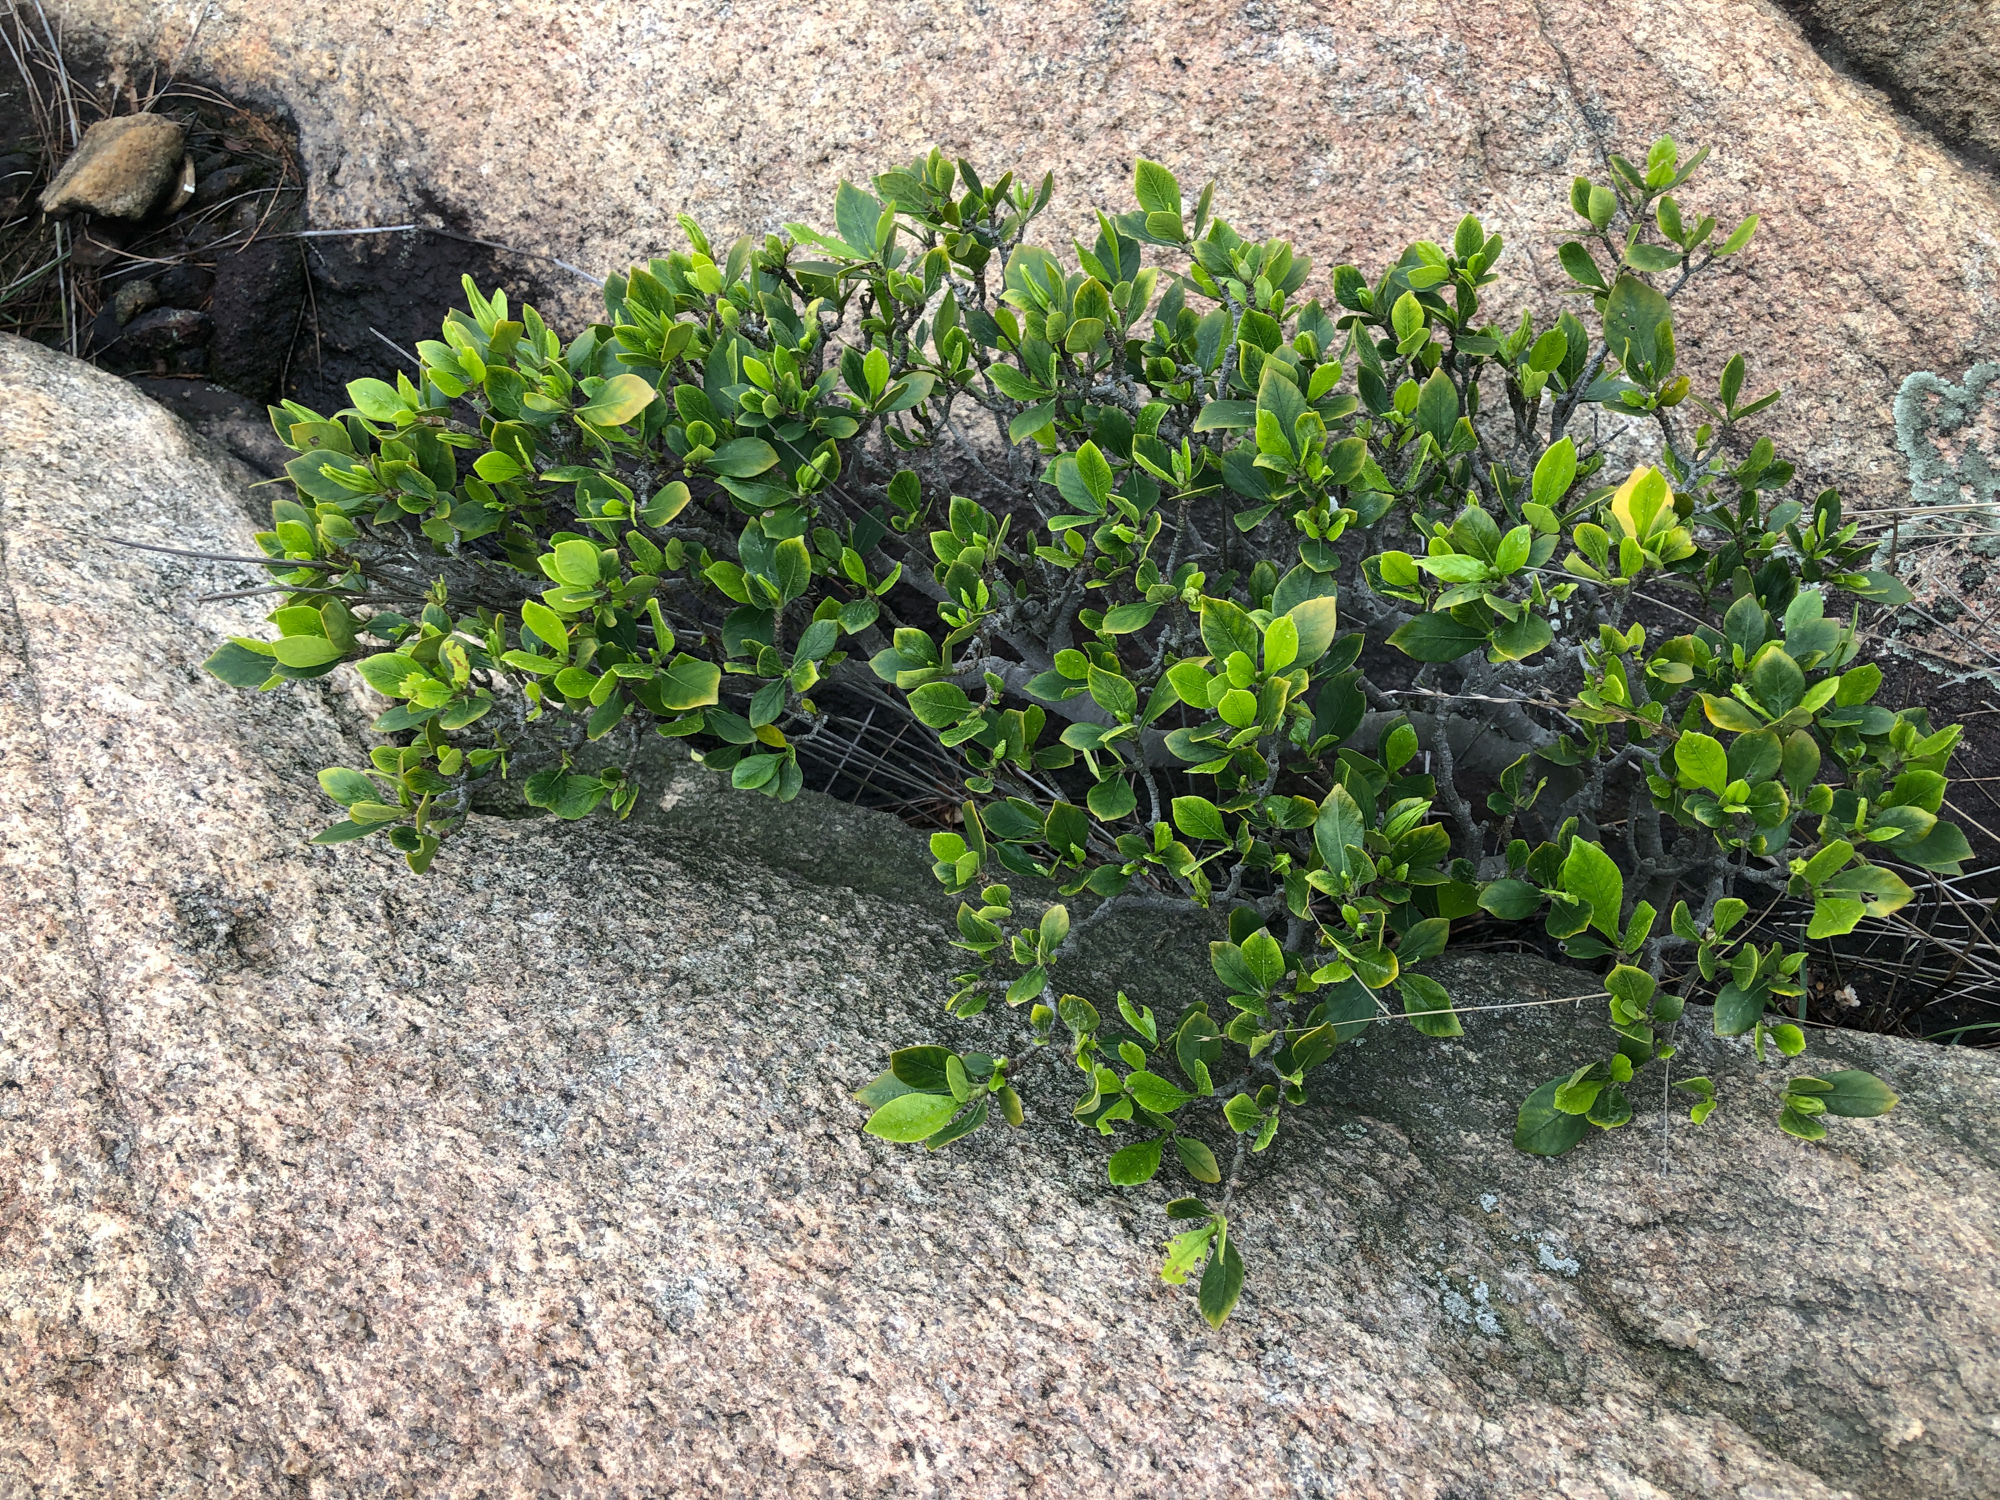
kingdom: Plantae
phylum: Tracheophyta
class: Magnoliopsida
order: Gentianales
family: Rubiaceae
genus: Gardenia
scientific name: Gardenia jasminoides
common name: Cape-jasmine
